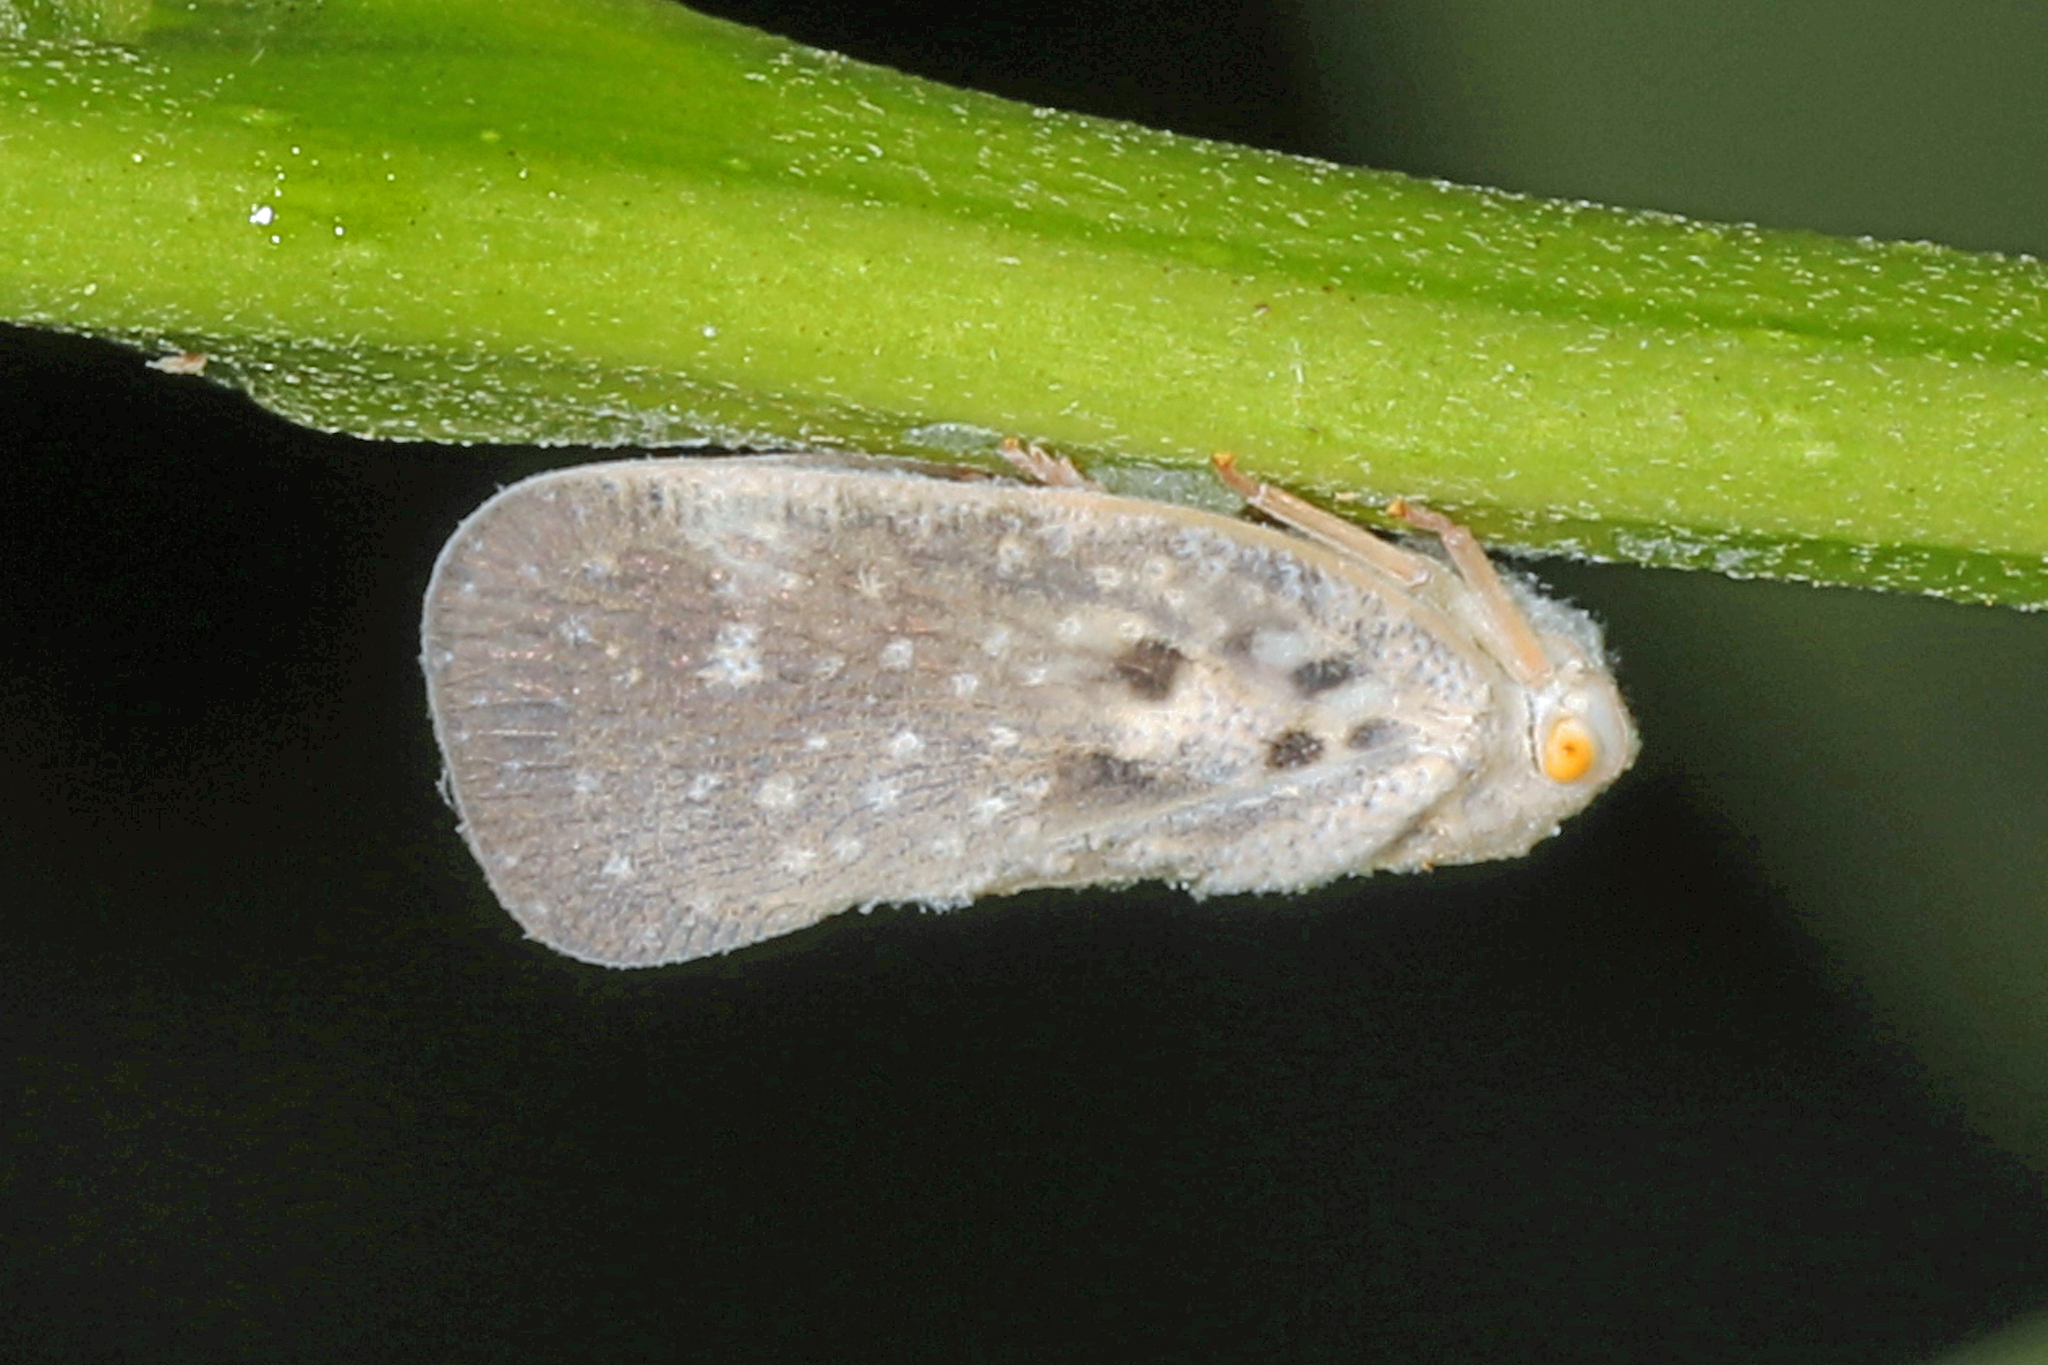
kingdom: Animalia
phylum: Arthropoda
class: Insecta
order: Hemiptera
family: Flatidae
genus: Metcalfa
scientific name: Metcalfa pruinosa
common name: Citrus flatid planthopper
